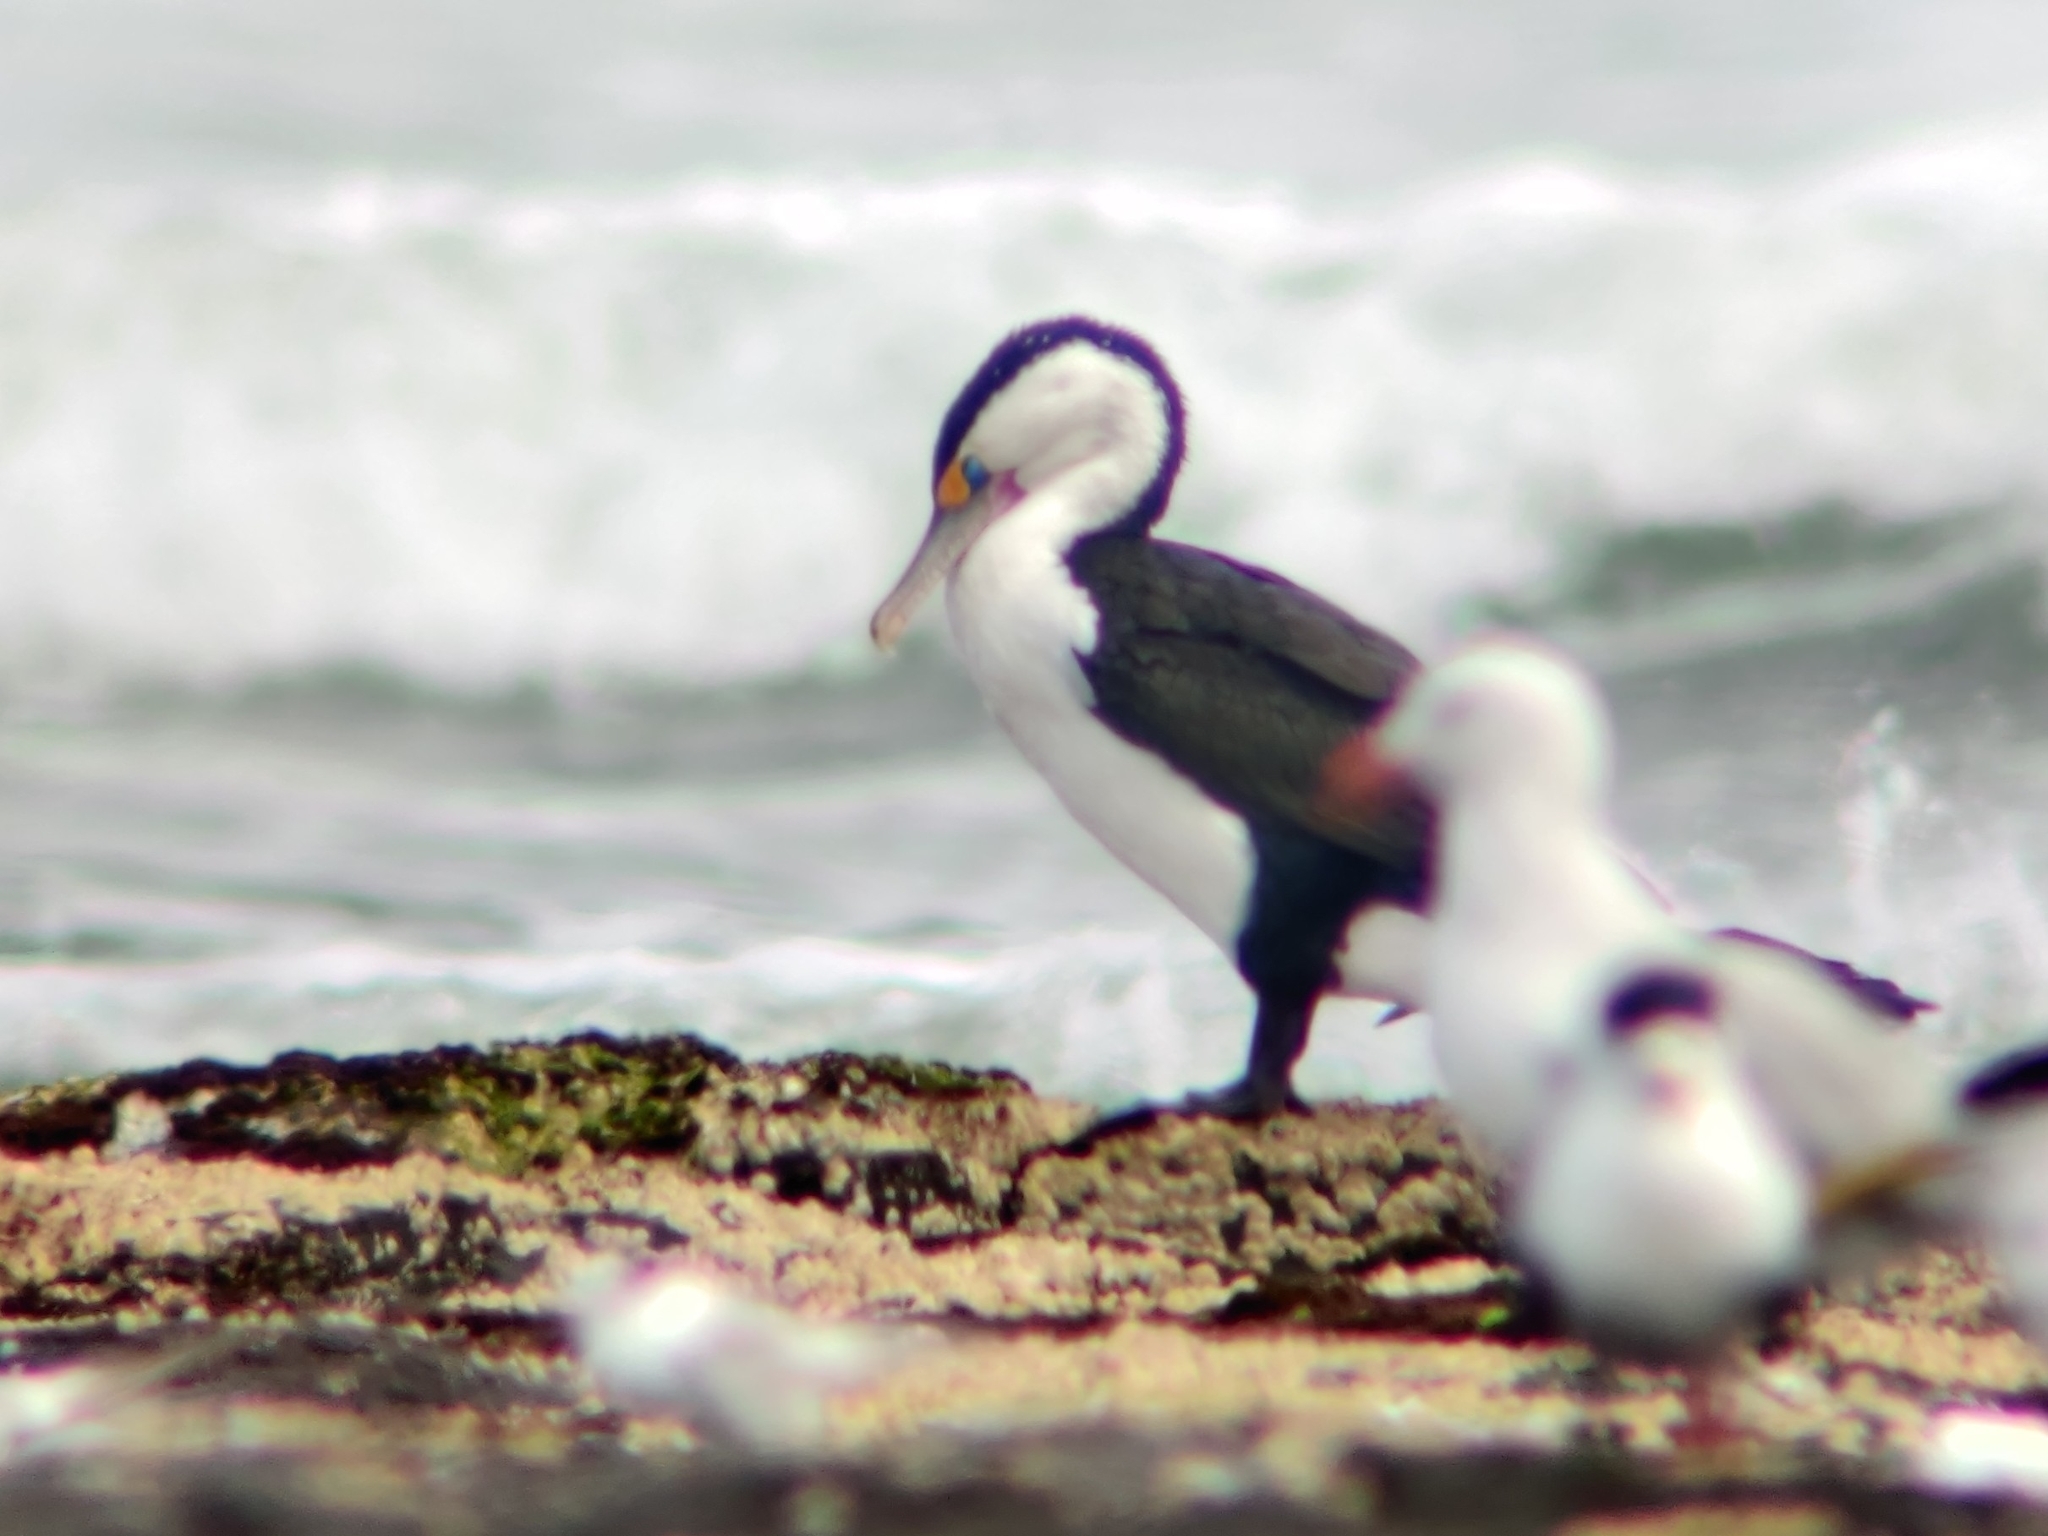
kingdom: Animalia
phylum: Chordata
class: Aves
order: Suliformes
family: Phalacrocoracidae
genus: Phalacrocorax
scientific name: Phalacrocorax varius
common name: Pied cormorant
